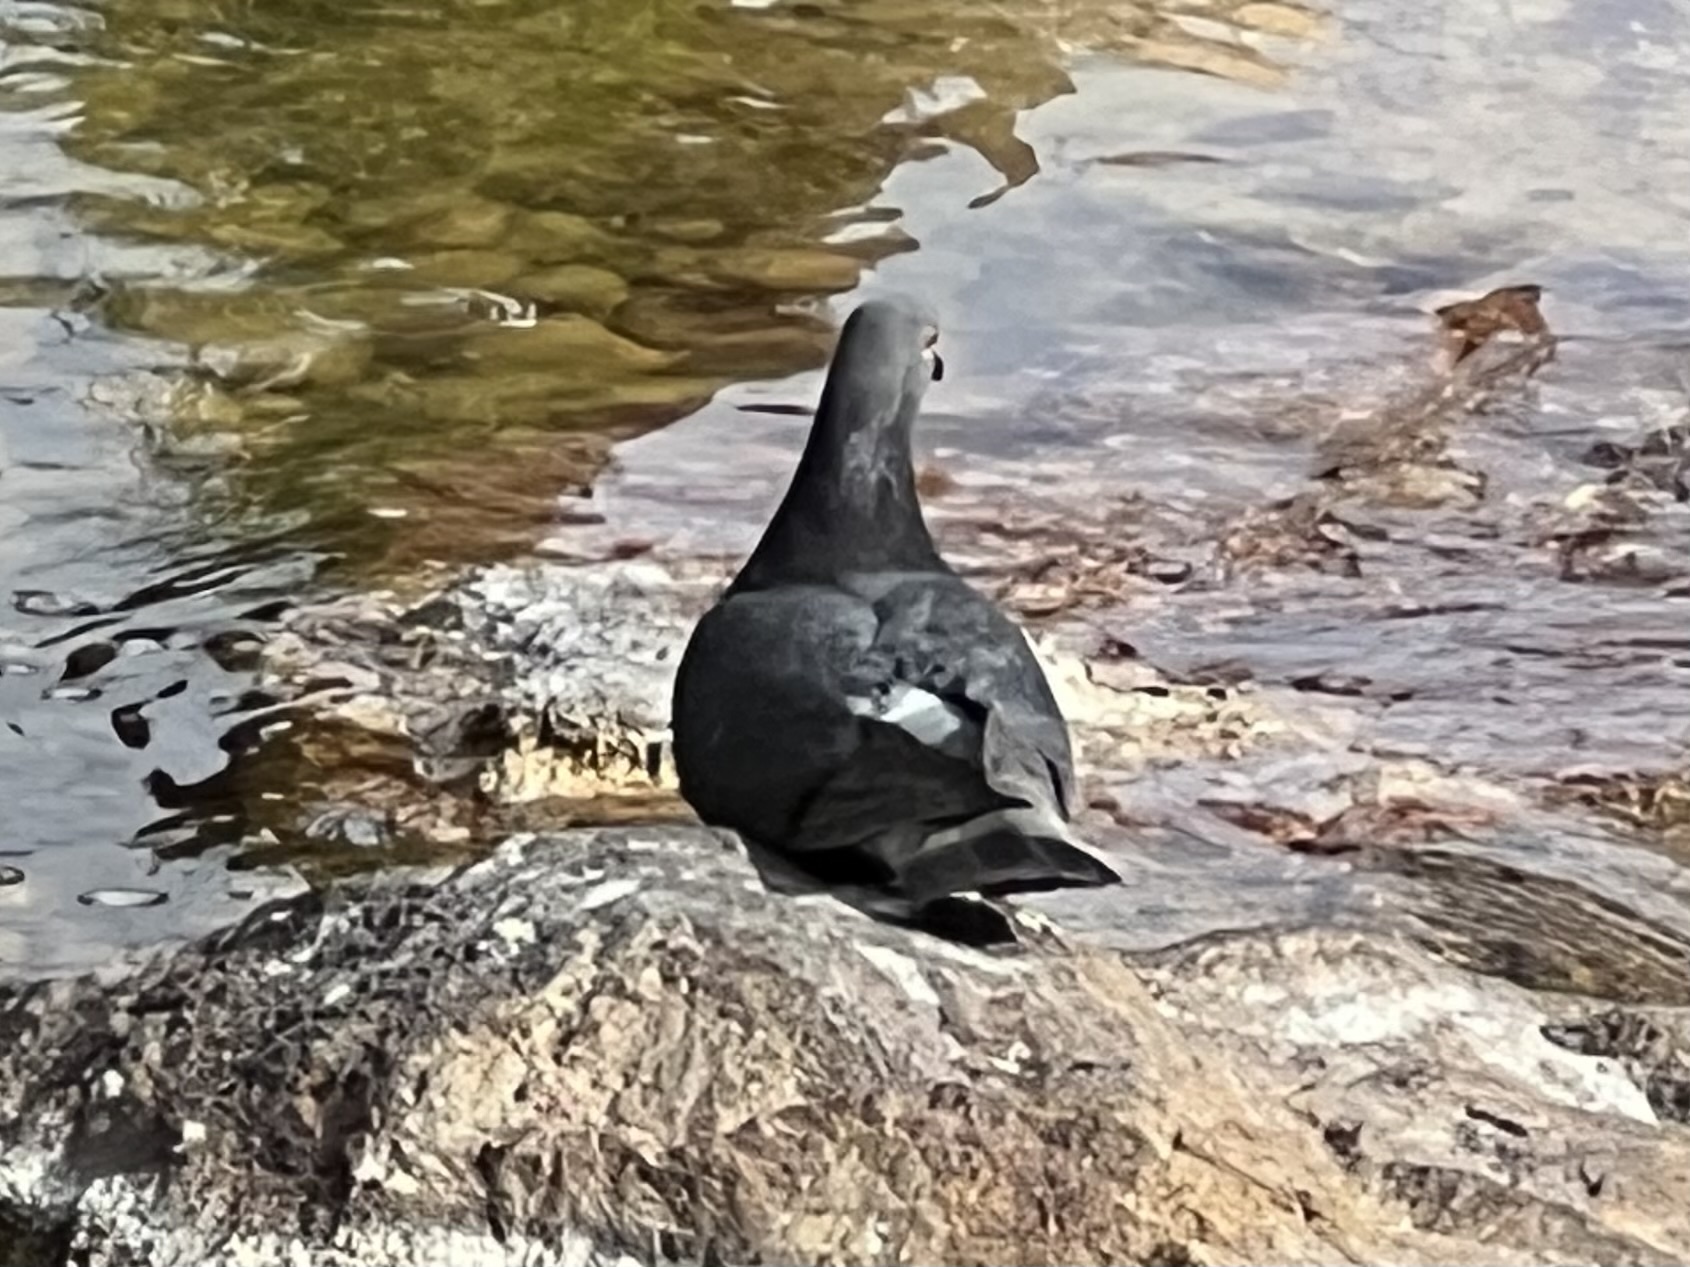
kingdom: Animalia
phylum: Chordata
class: Aves
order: Columbiformes
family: Columbidae
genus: Columba
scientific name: Columba livia
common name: Rock pigeon
